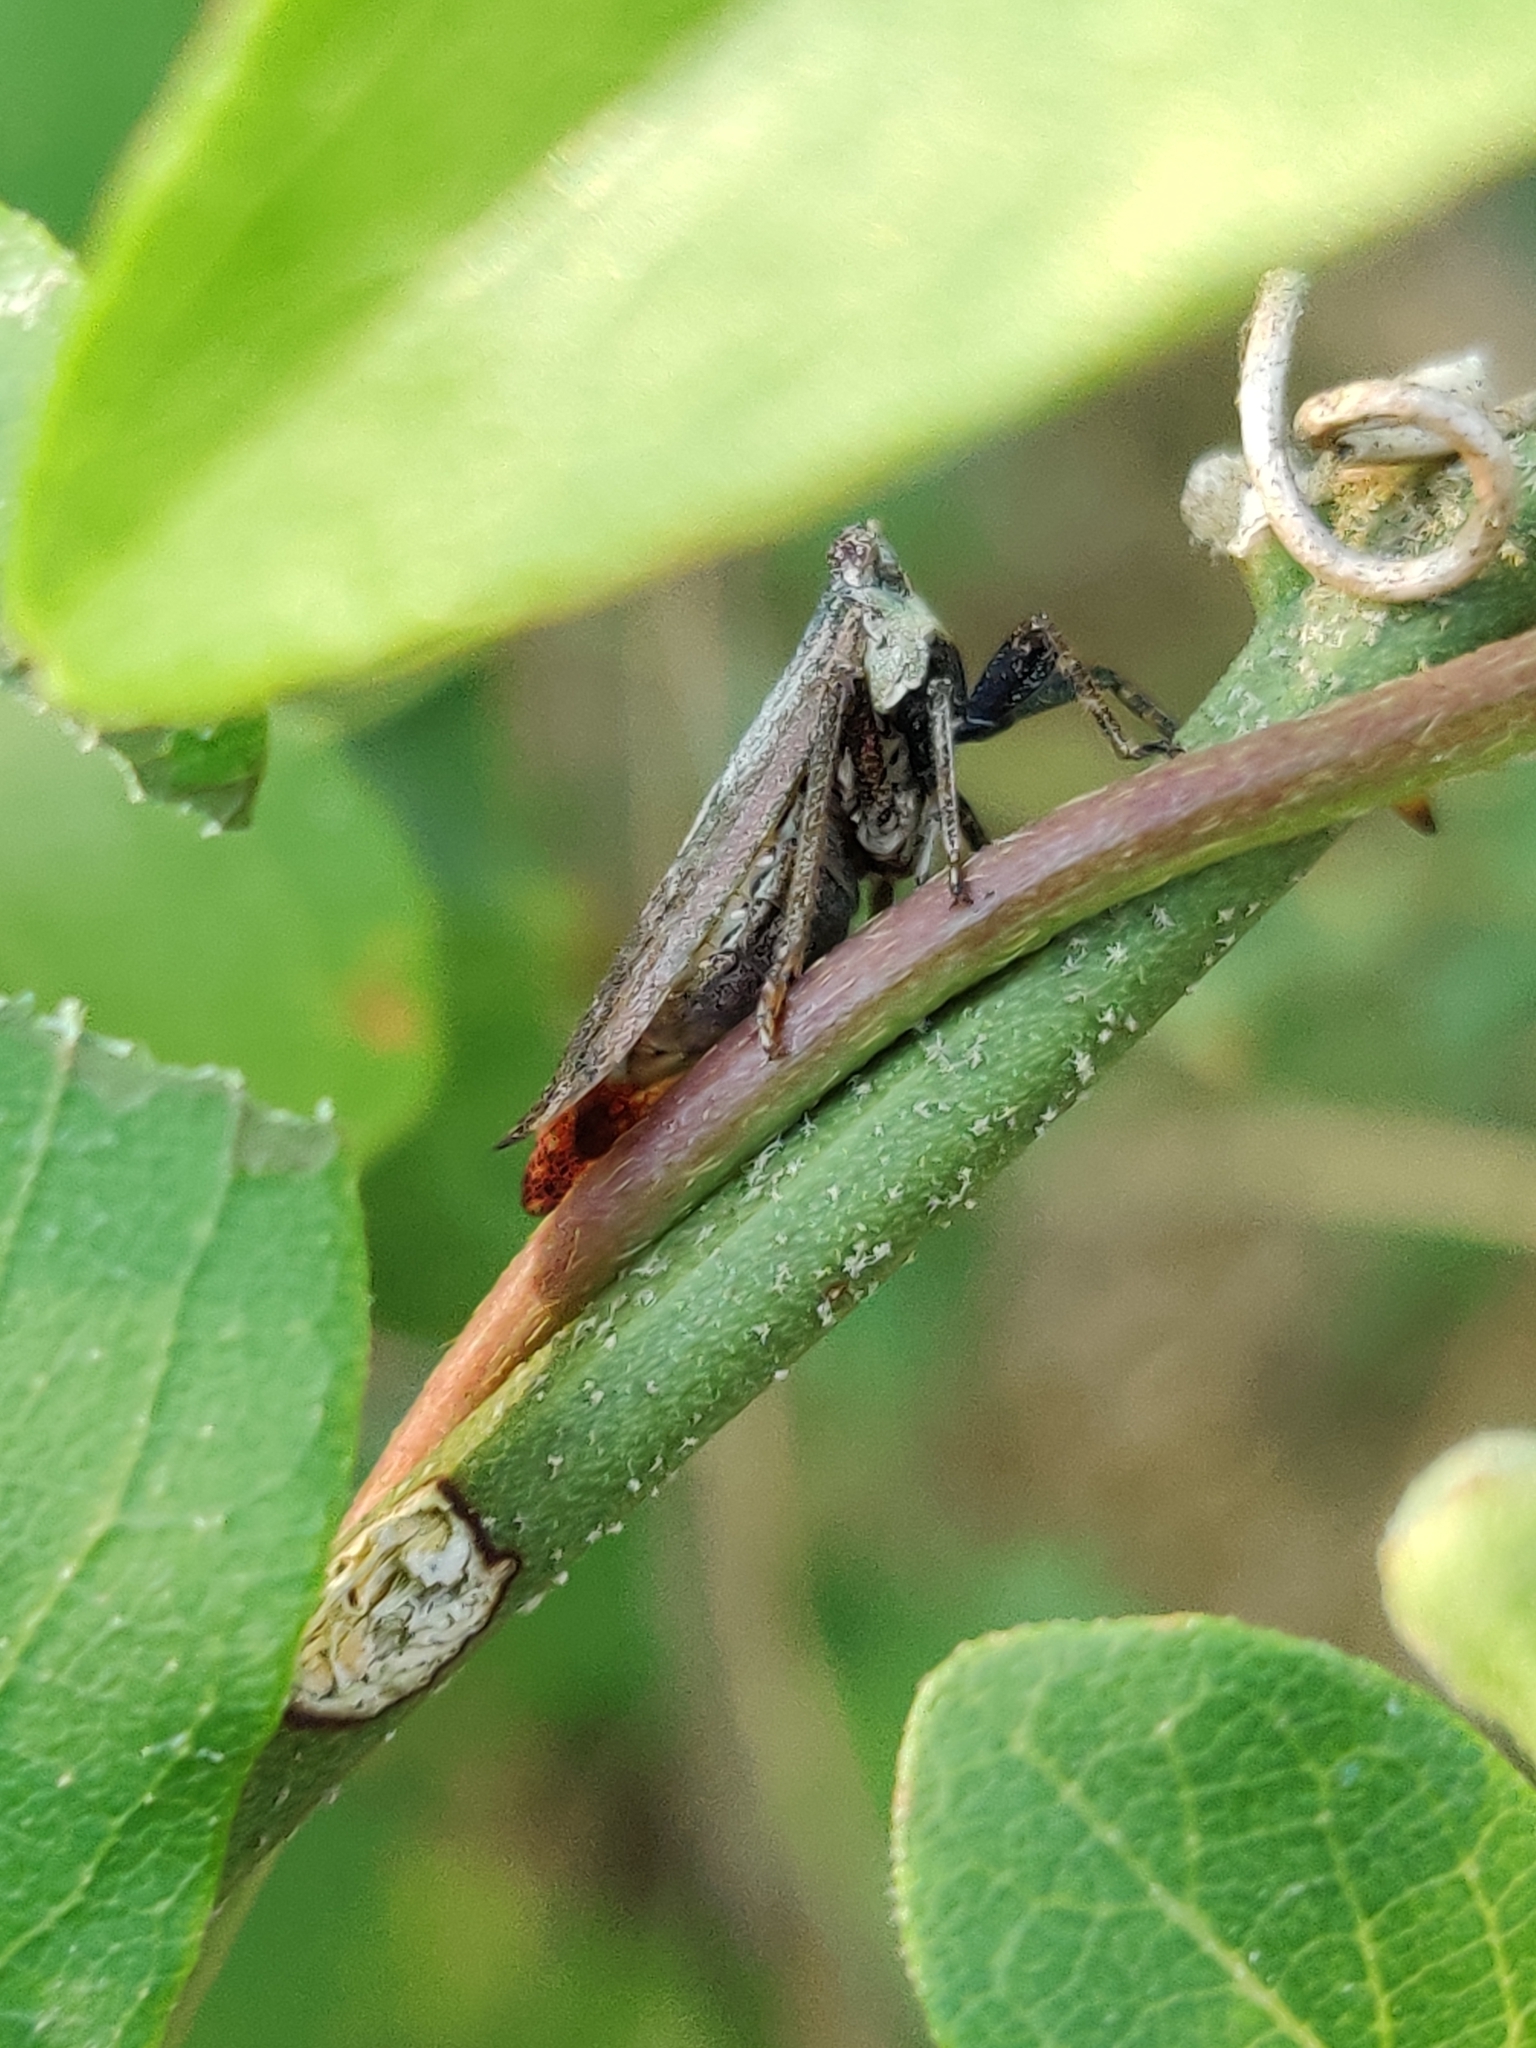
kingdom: Animalia
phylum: Arthropoda
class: Insecta
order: Hemiptera
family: Fulgoridae
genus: Cyrpoptus
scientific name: Cyrpoptus belfragei
